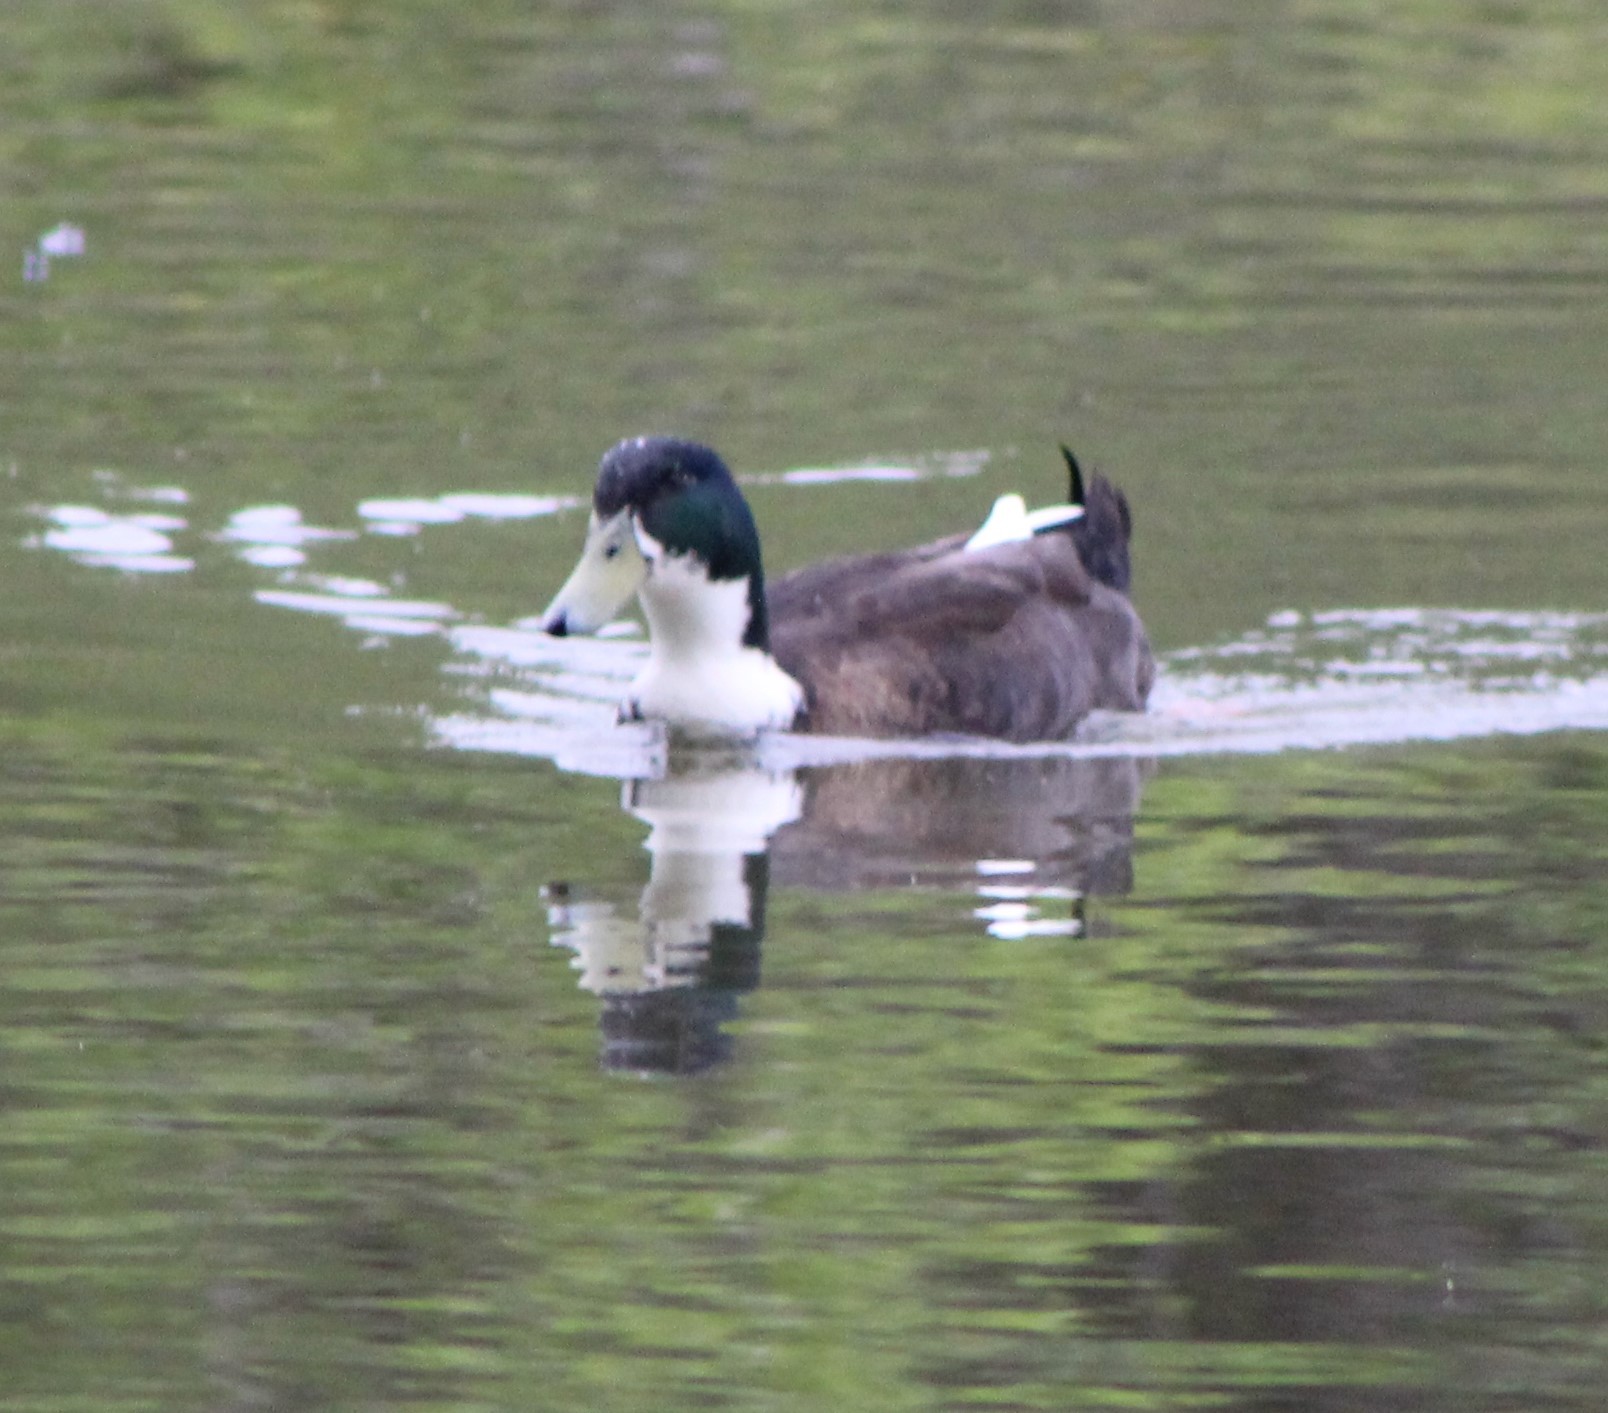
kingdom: Animalia
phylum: Chordata
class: Aves
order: Anseriformes
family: Anatidae
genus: Anas
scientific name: Anas platyrhynchos
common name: Mallard
